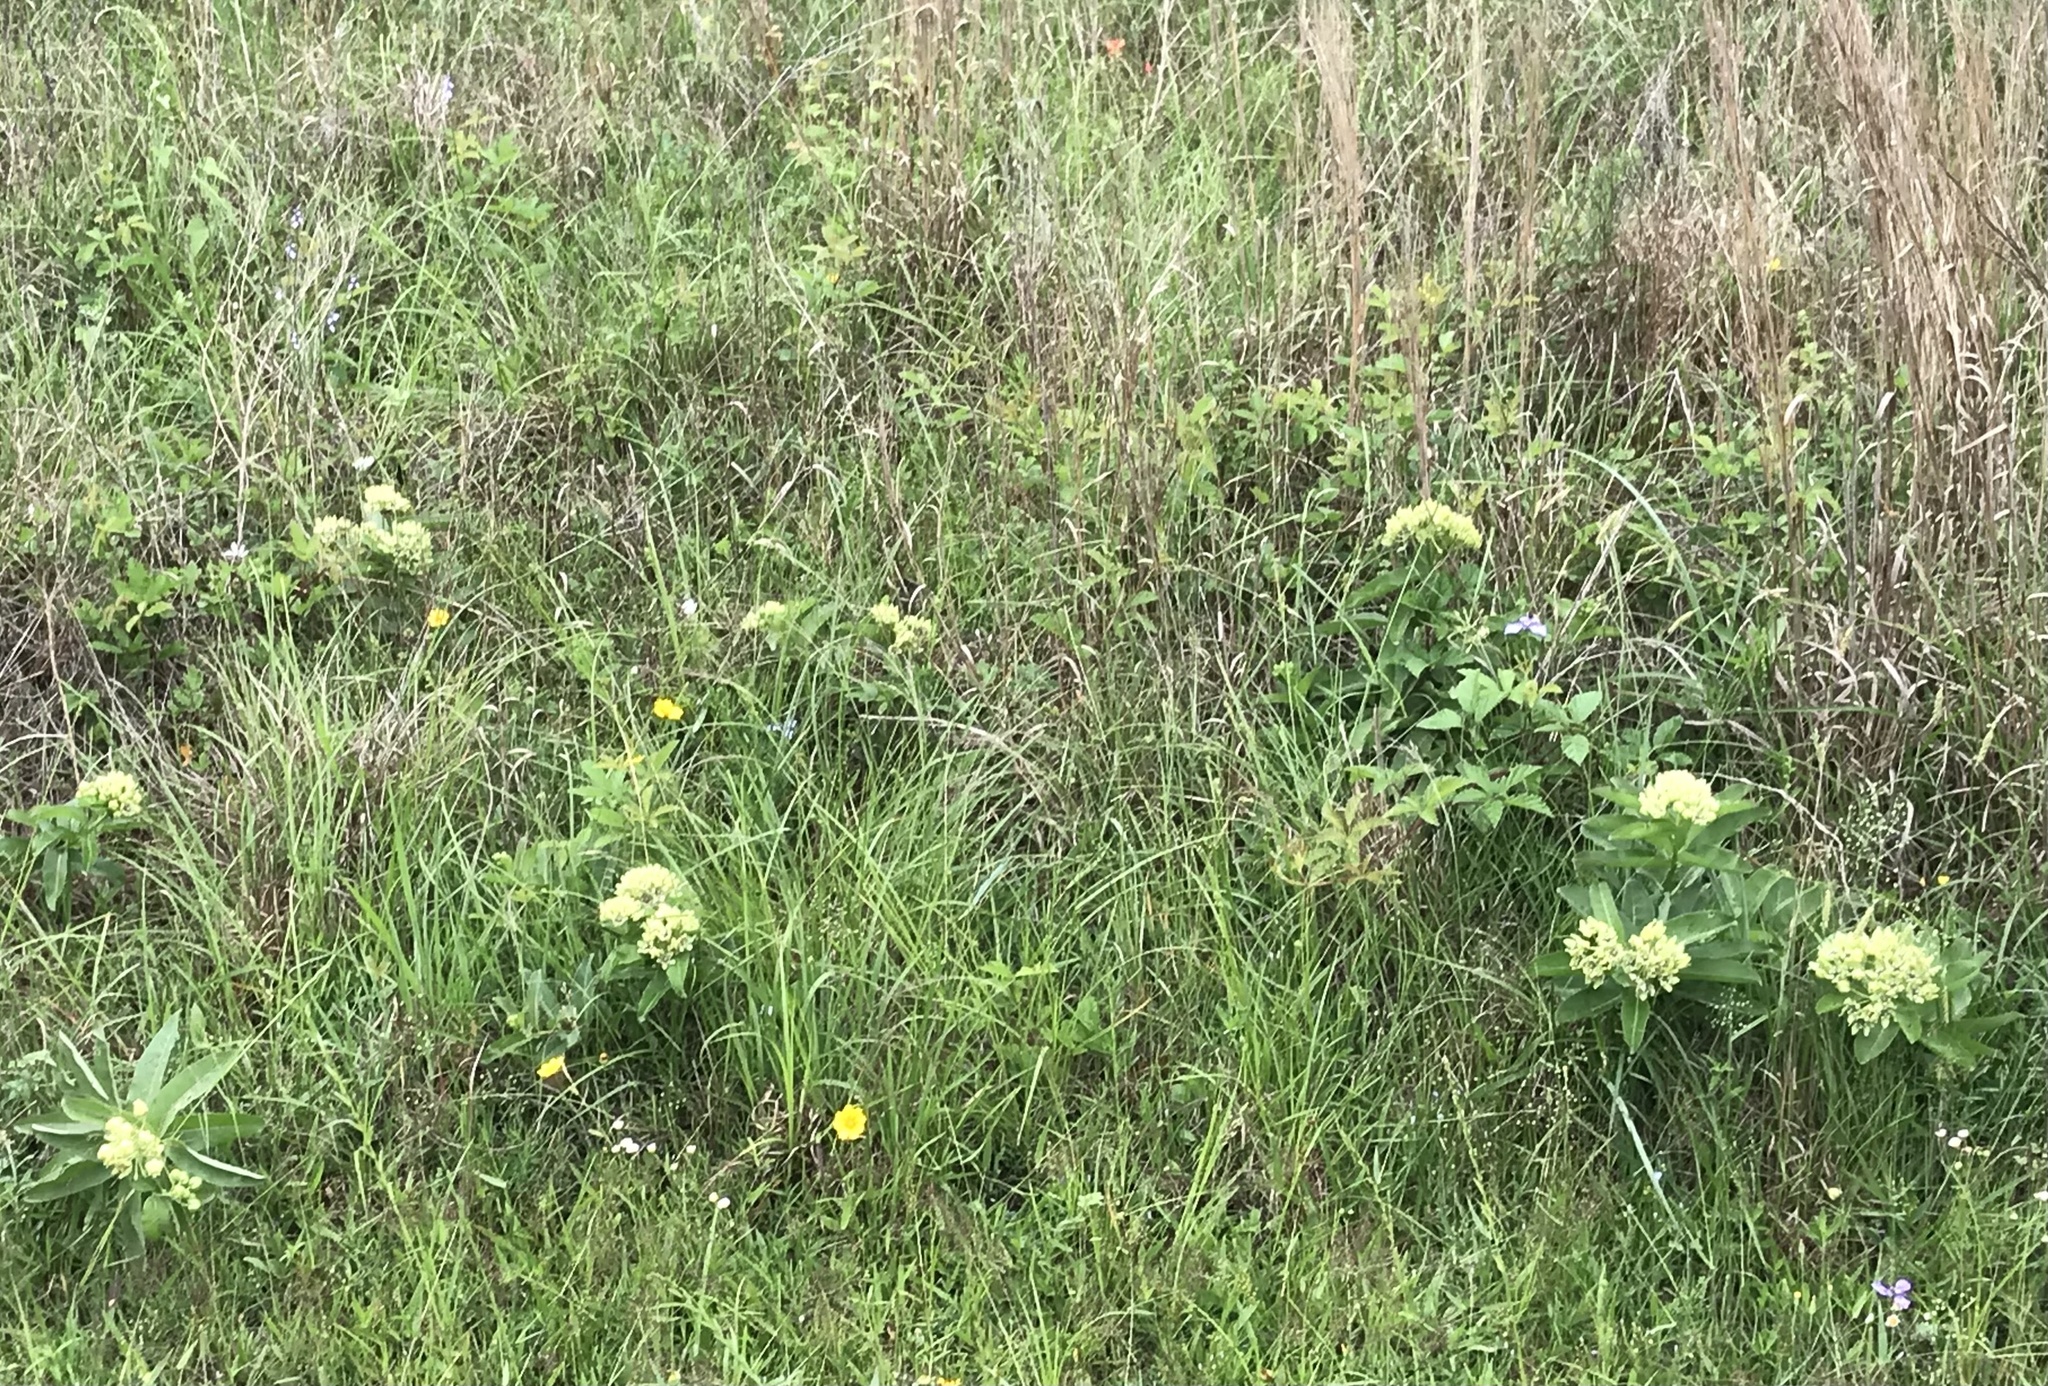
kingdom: Plantae
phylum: Tracheophyta
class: Magnoliopsida
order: Gentianales
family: Apocynaceae
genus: Asclepias
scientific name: Asclepias viridis
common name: Antelope-horns
